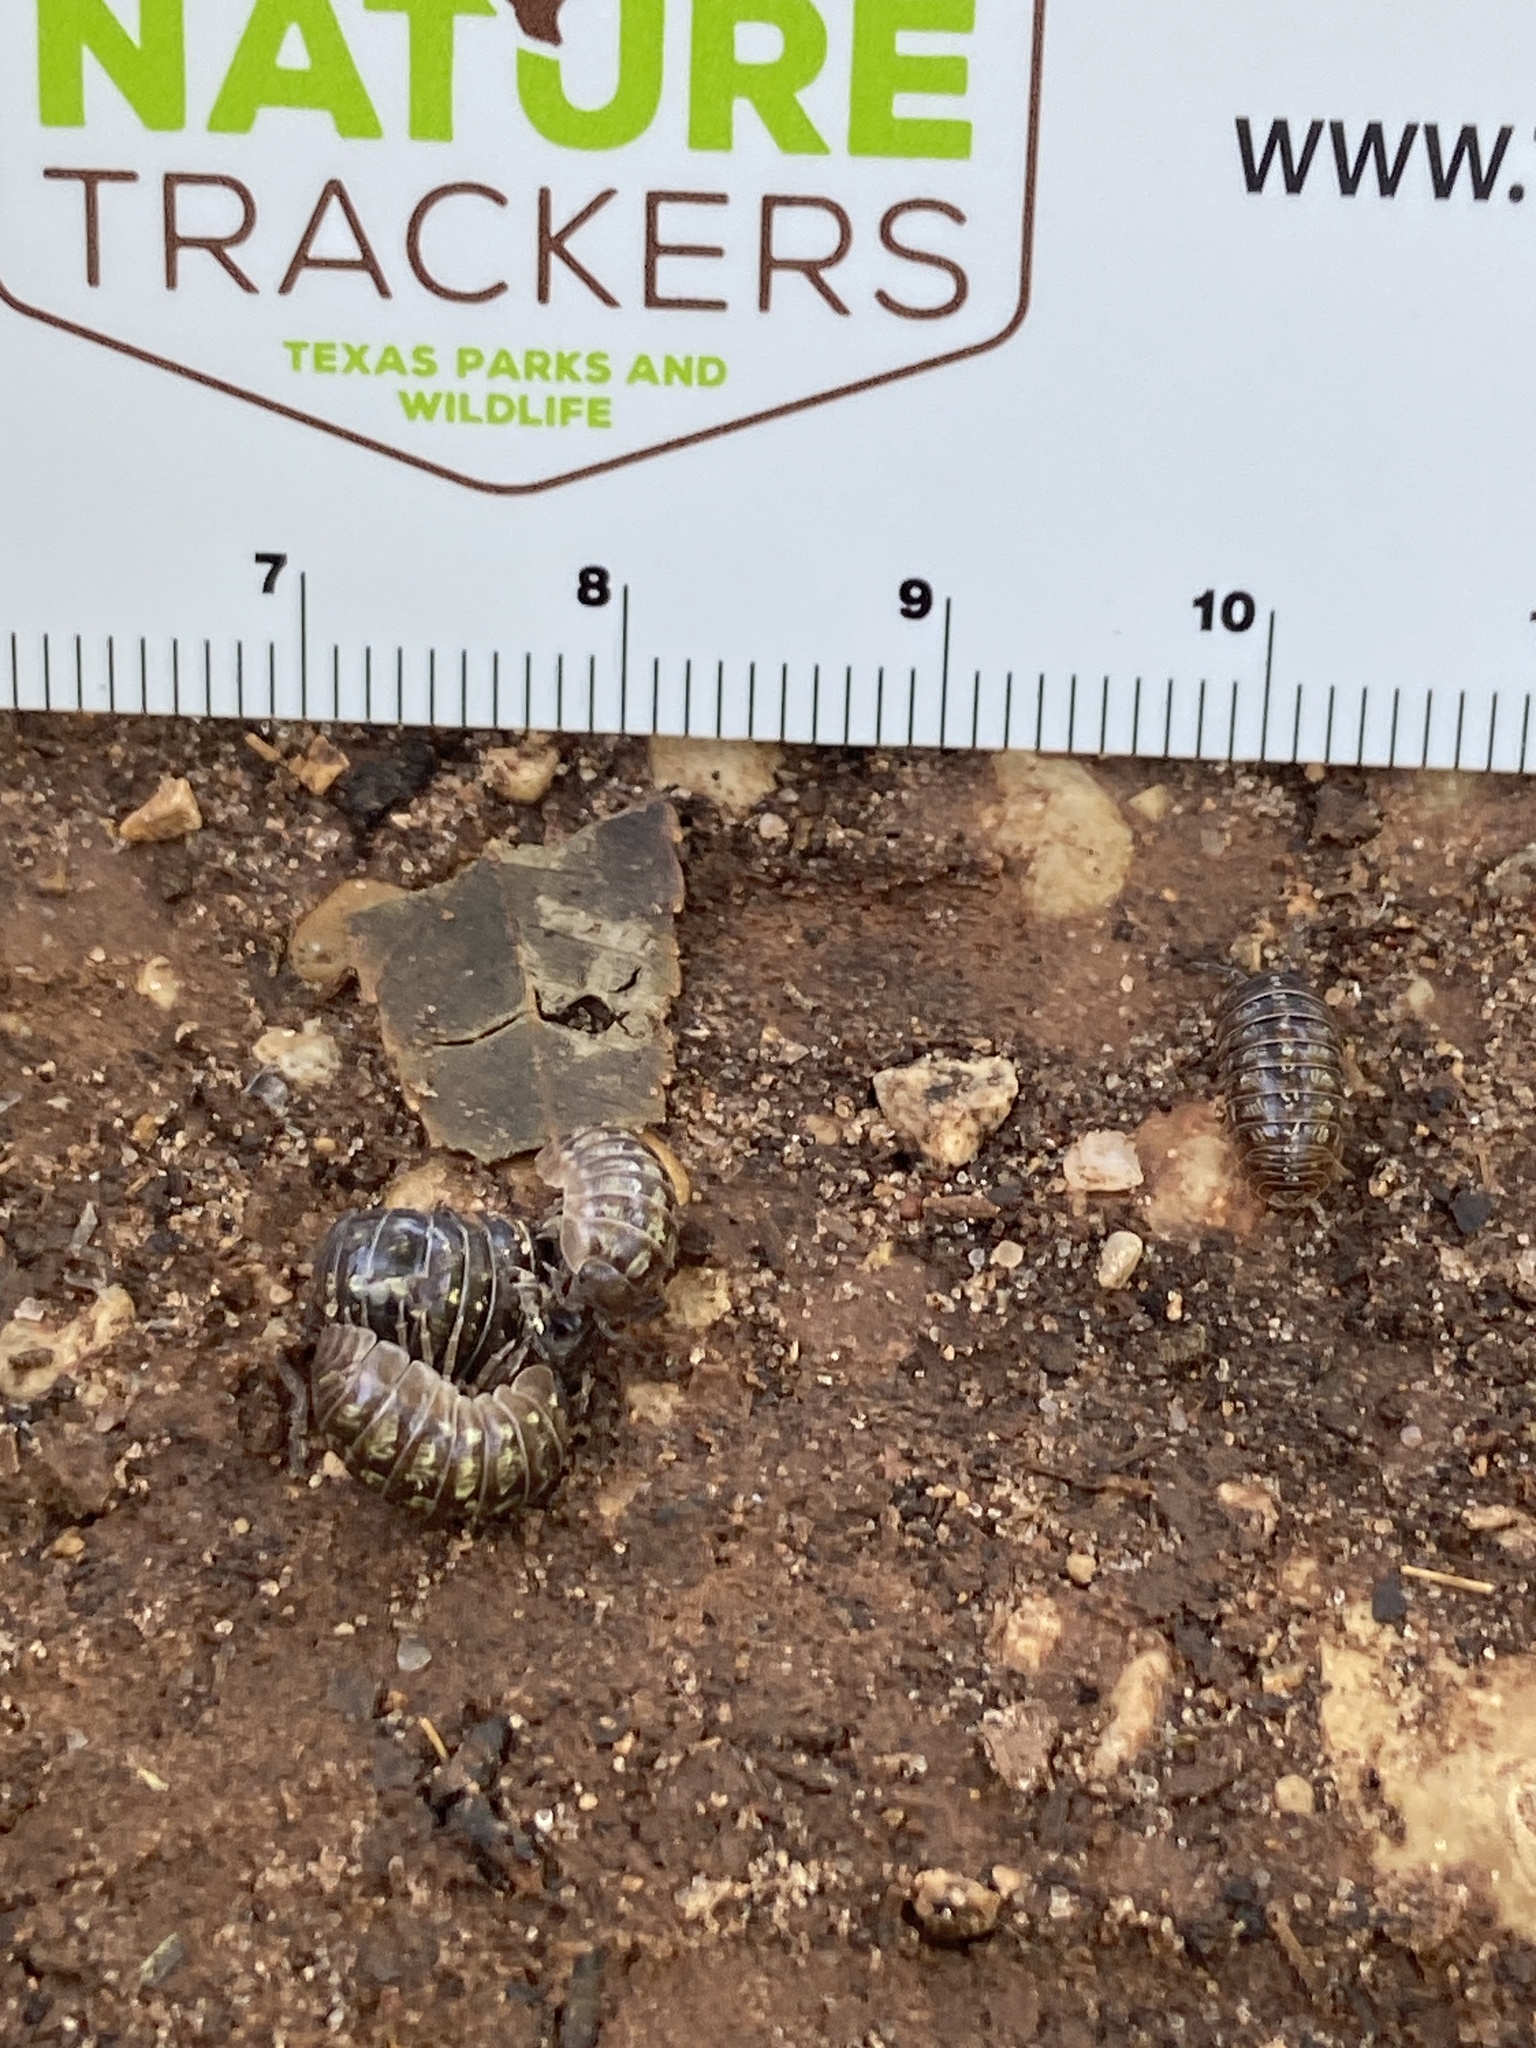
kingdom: Animalia
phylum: Arthropoda
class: Malacostraca
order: Isopoda
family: Armadillidiidae
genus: Armadillidium
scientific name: Armadillidium vulgare
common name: Common pill woodlouse
